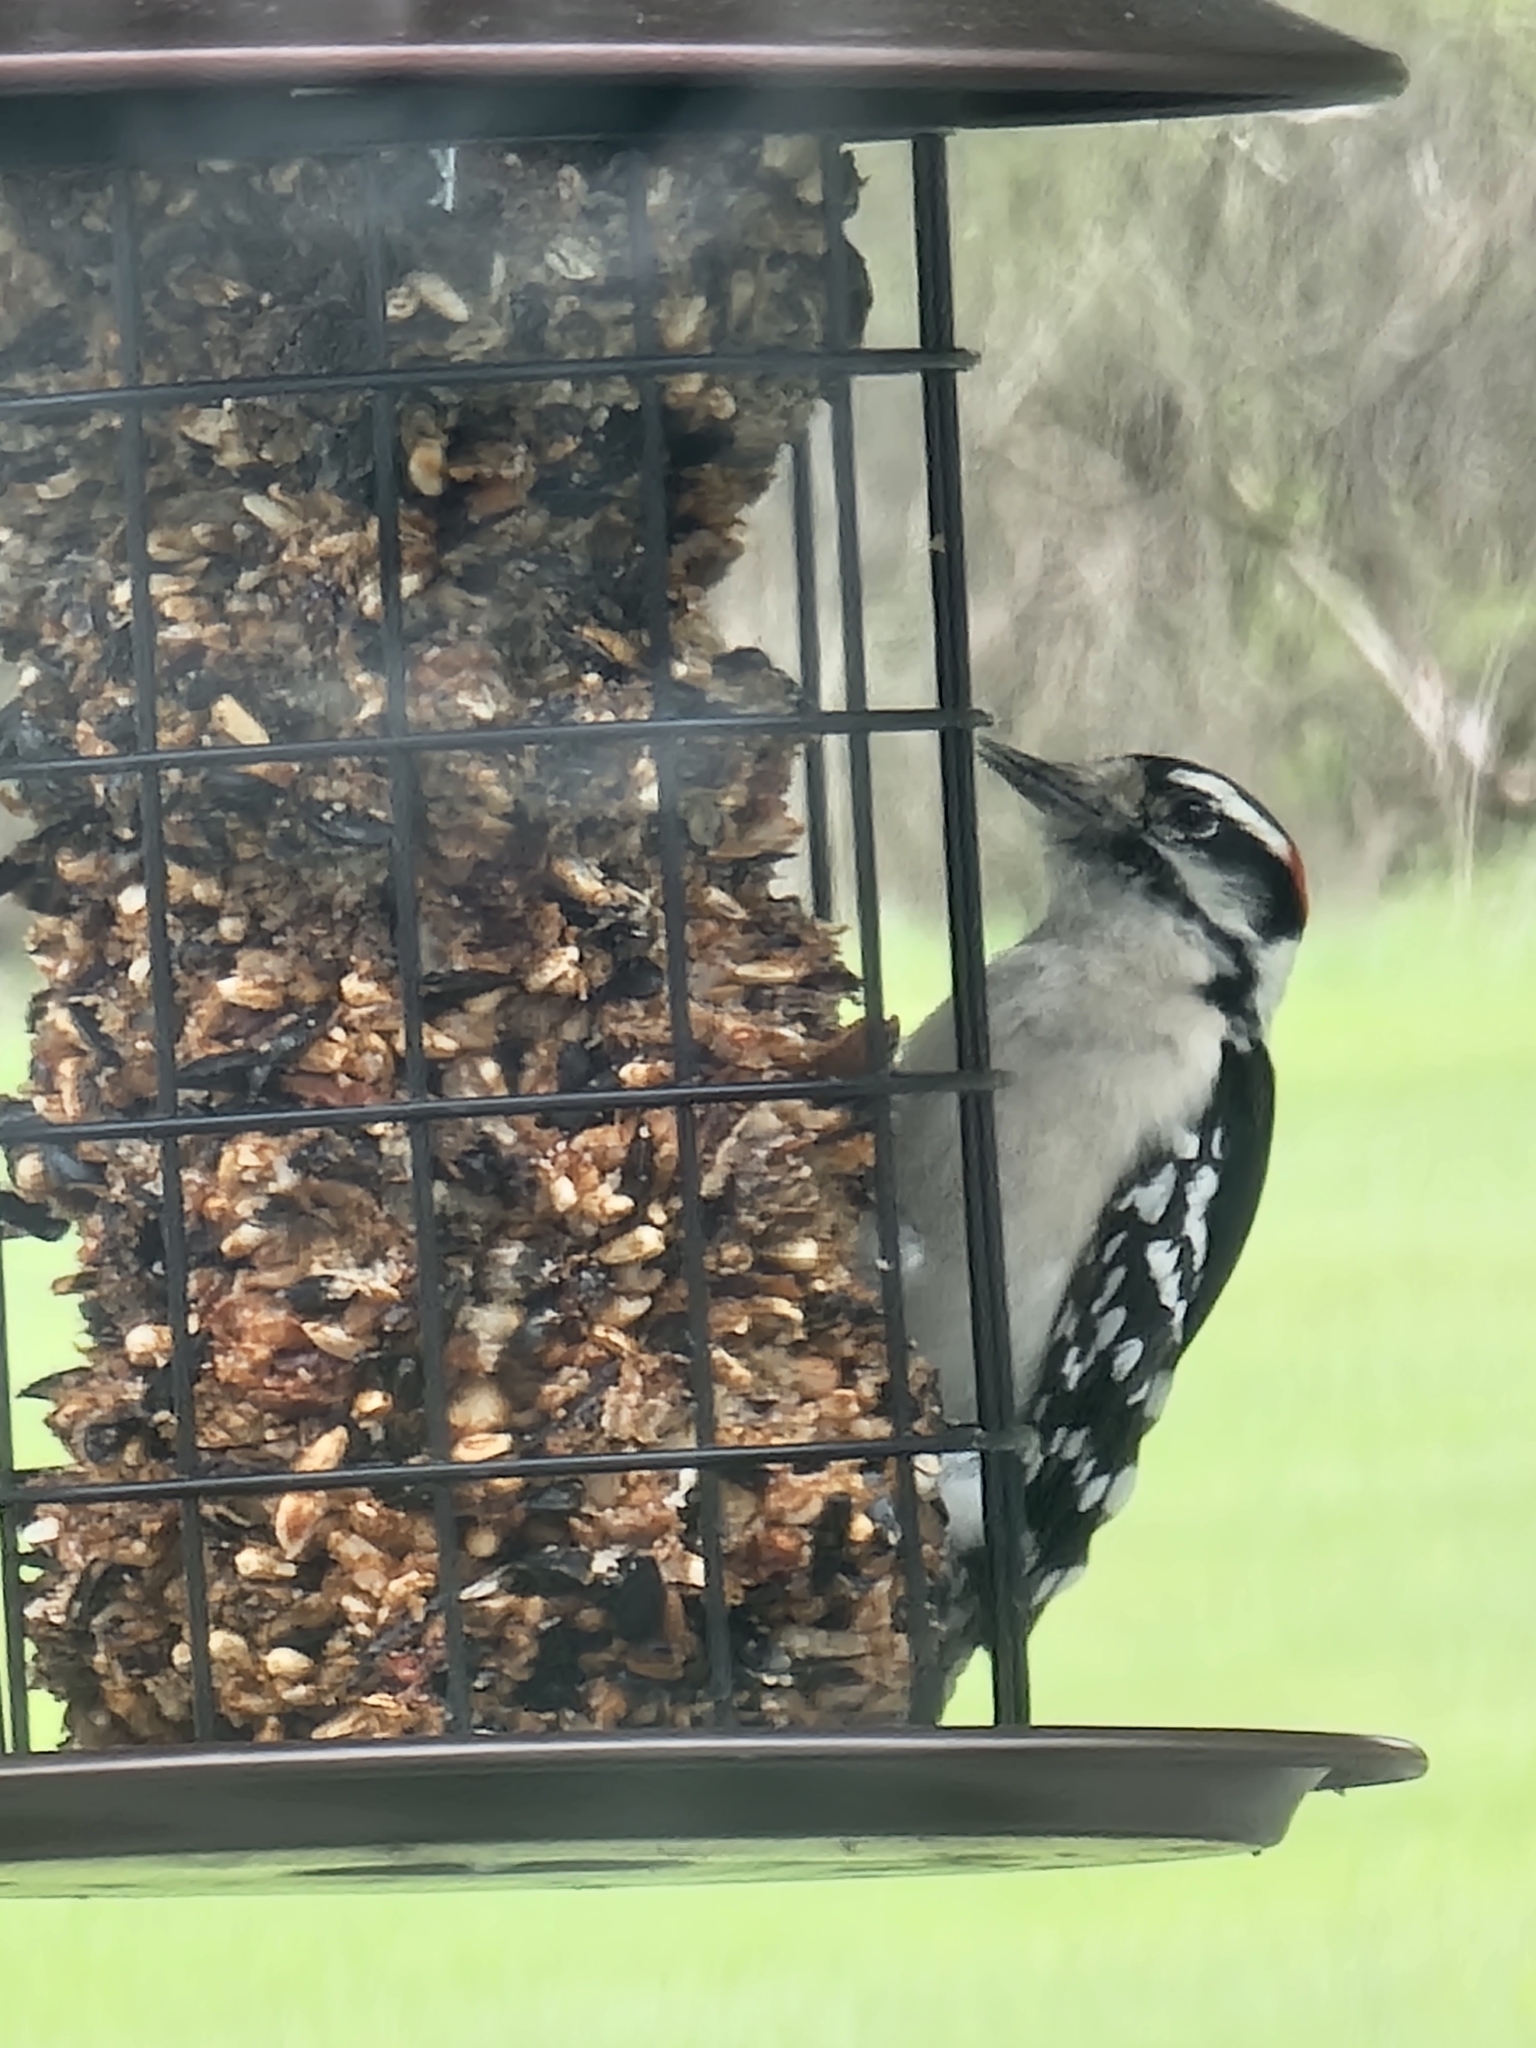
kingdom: Animalia
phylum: Chordata
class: Aves
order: Piciformes
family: Picidae
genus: Dryobates
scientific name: Dryobates pubescens
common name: Downy woodpecker
